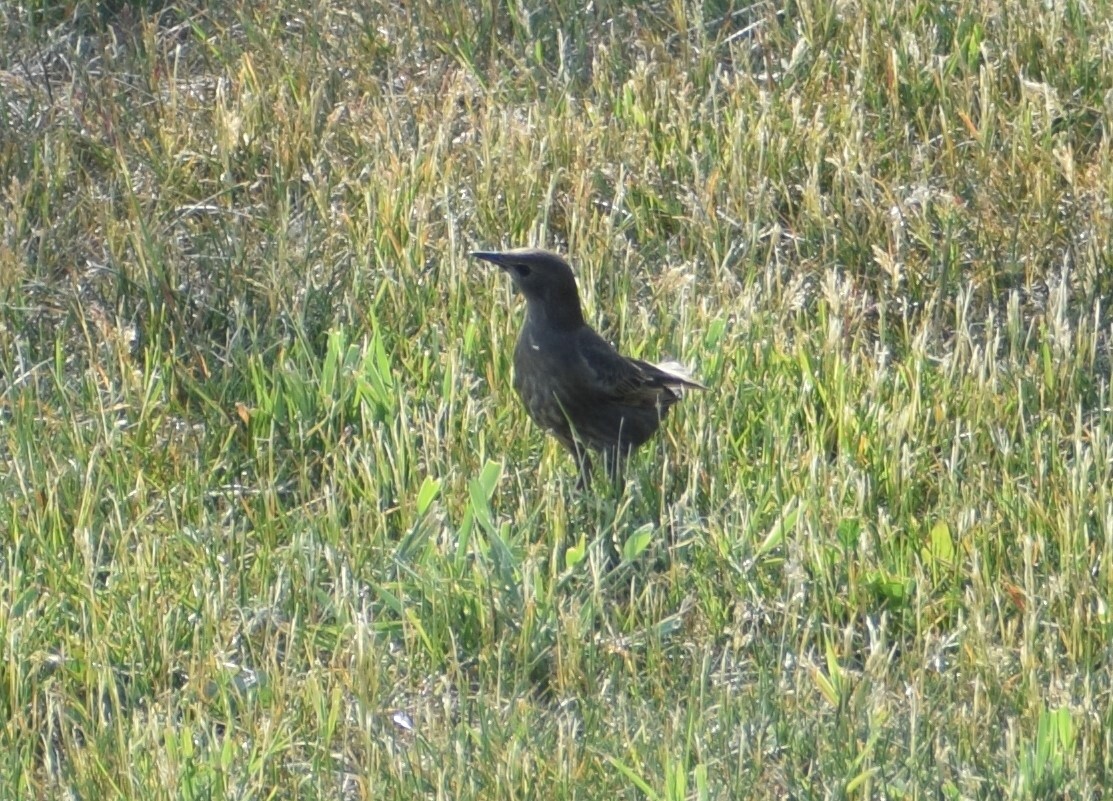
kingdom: Animalia
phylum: Chordata
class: Aves
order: Passeriformes
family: Sturnidae
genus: Sturnus
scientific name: Sturnus vulgaris
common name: Common starling
